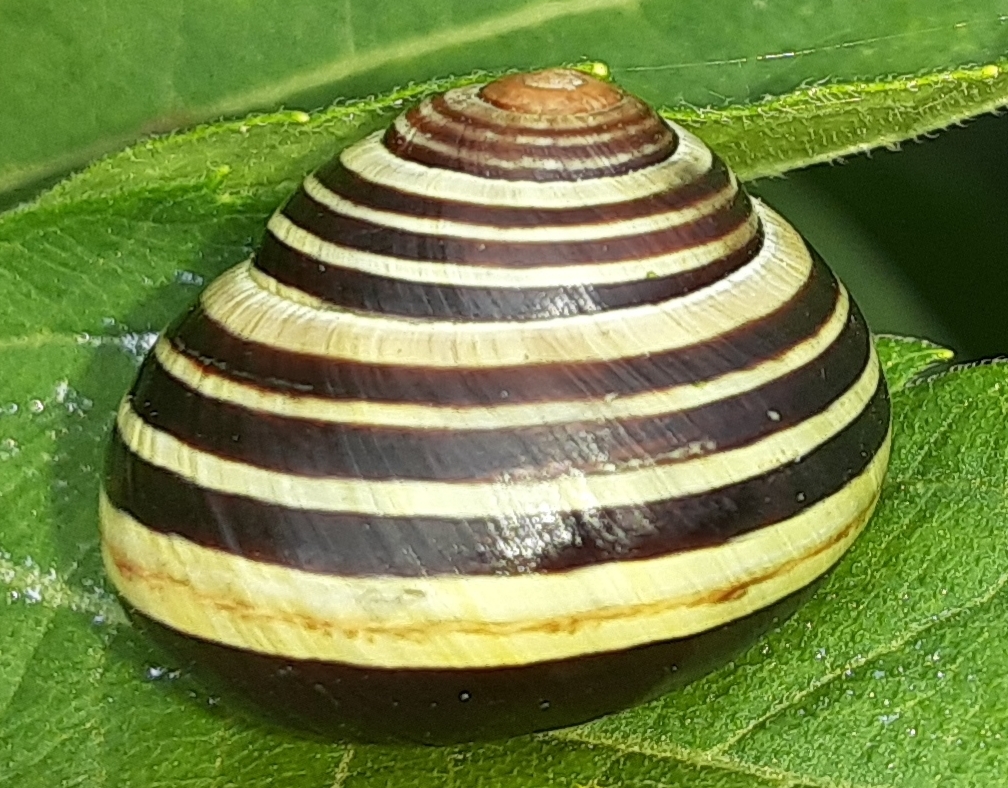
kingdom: Animalia
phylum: Mollusca
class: Gastropoda
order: Stylommatophora
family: Helicidae
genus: Cepaea
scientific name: Cepaea nemoralis
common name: Grovesnail
